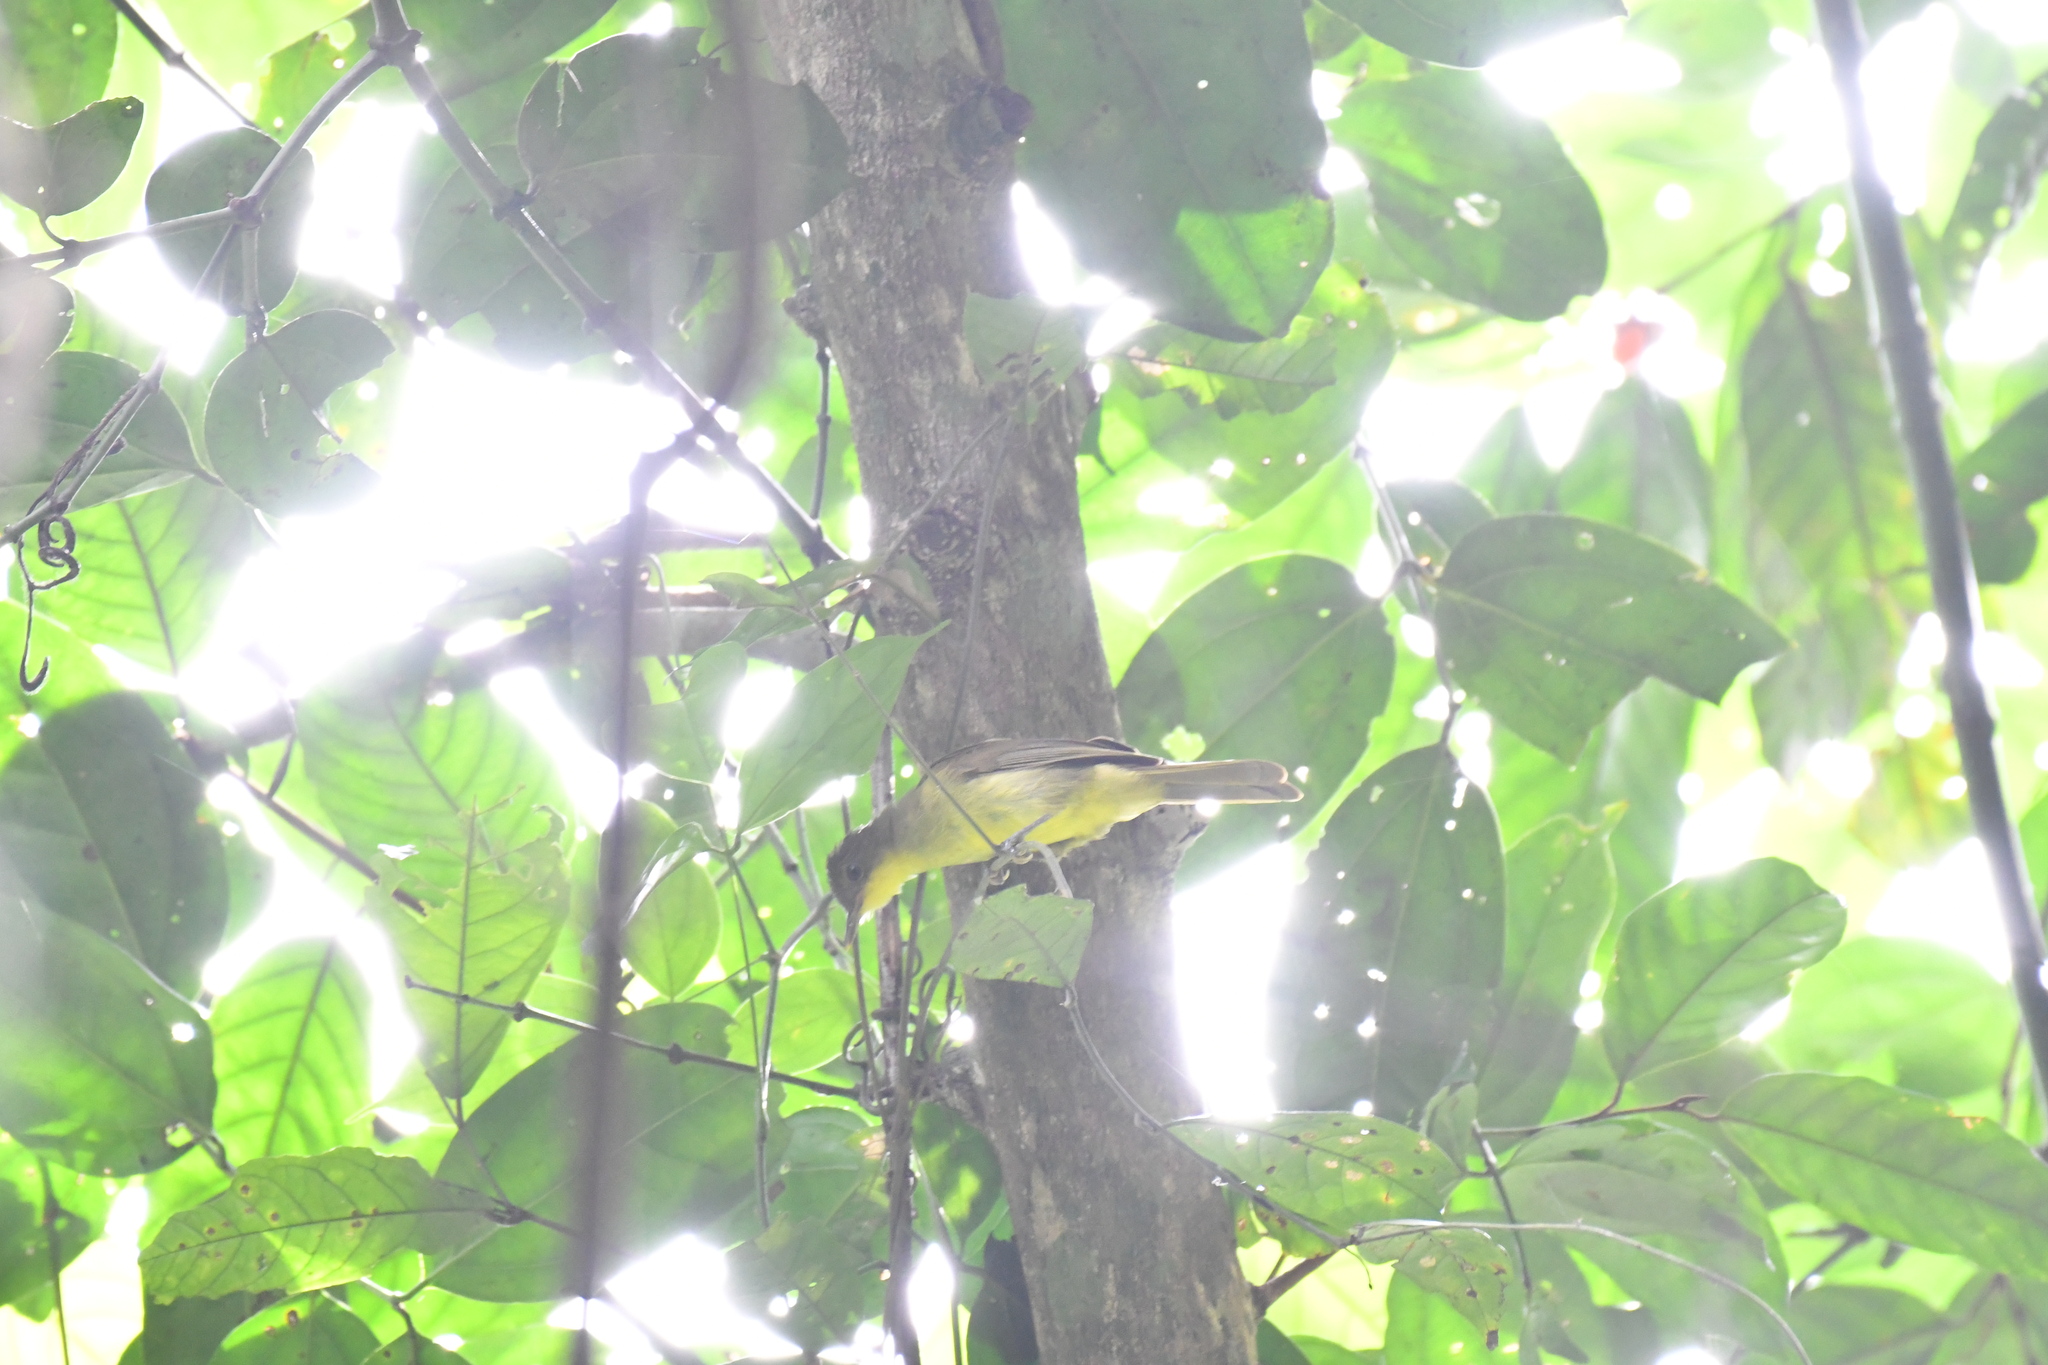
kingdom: Animalia
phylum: Chordata
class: Aves
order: Passeriformes
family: Pycnonotidae
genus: Phyllastrephus
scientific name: Phyllastrephus icterinus
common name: Icterine greenbul
